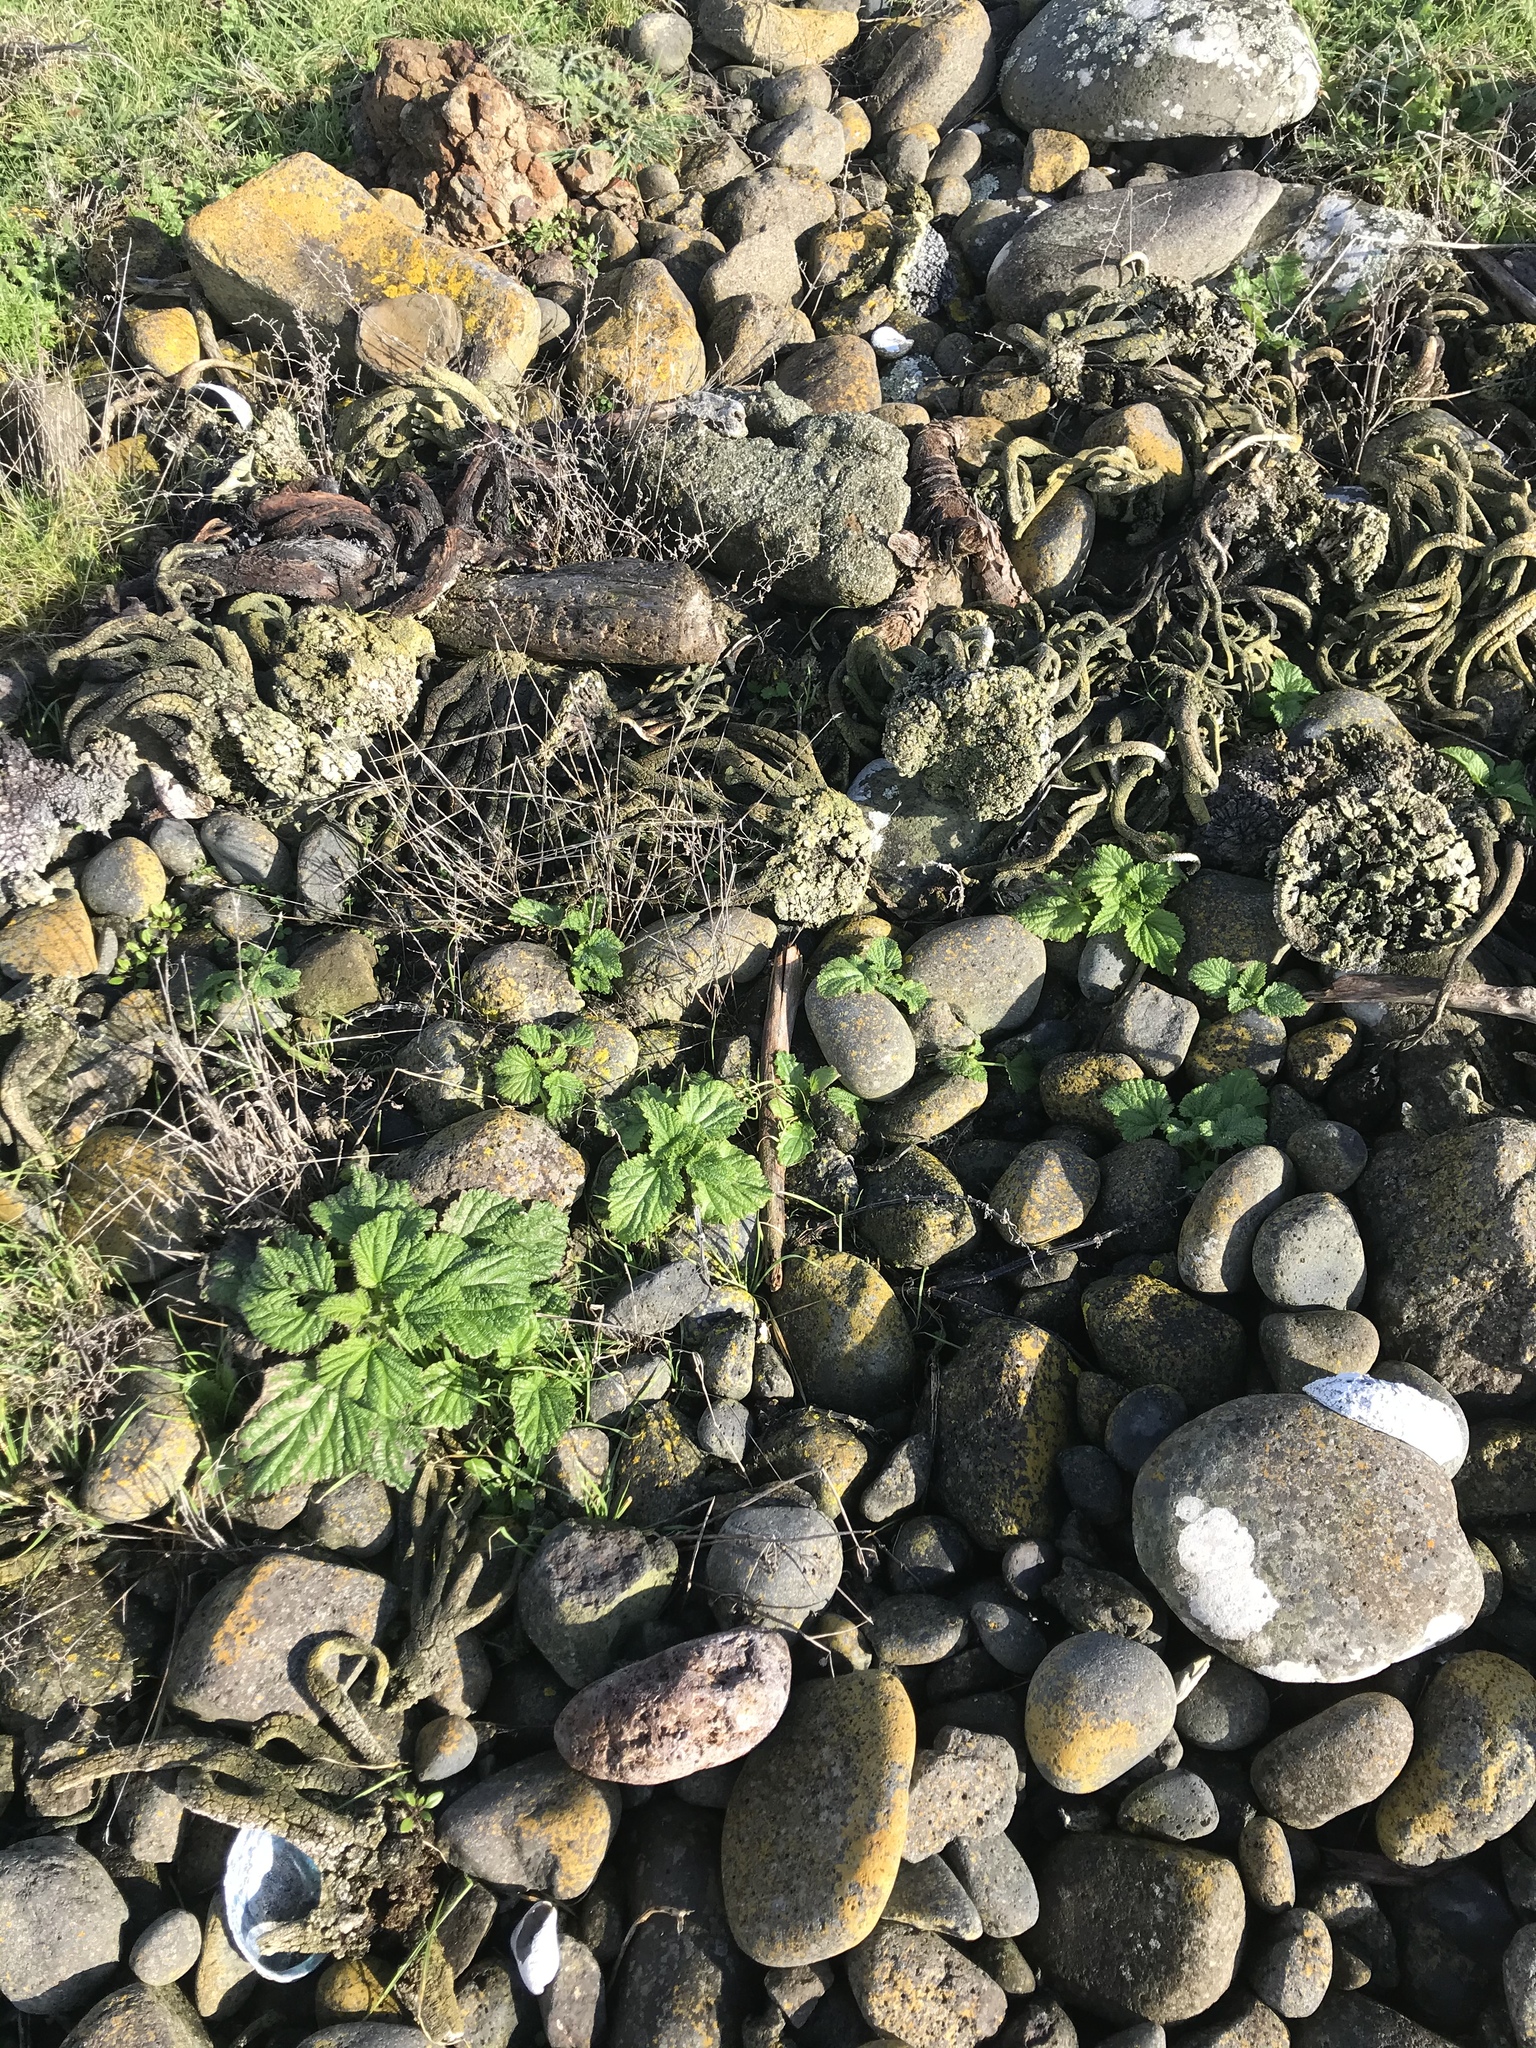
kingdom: Plantae
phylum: Tracheophyta
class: Magnoliopsida
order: Rosales
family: Urticaceae
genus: Urtica
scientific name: Urtica australis
